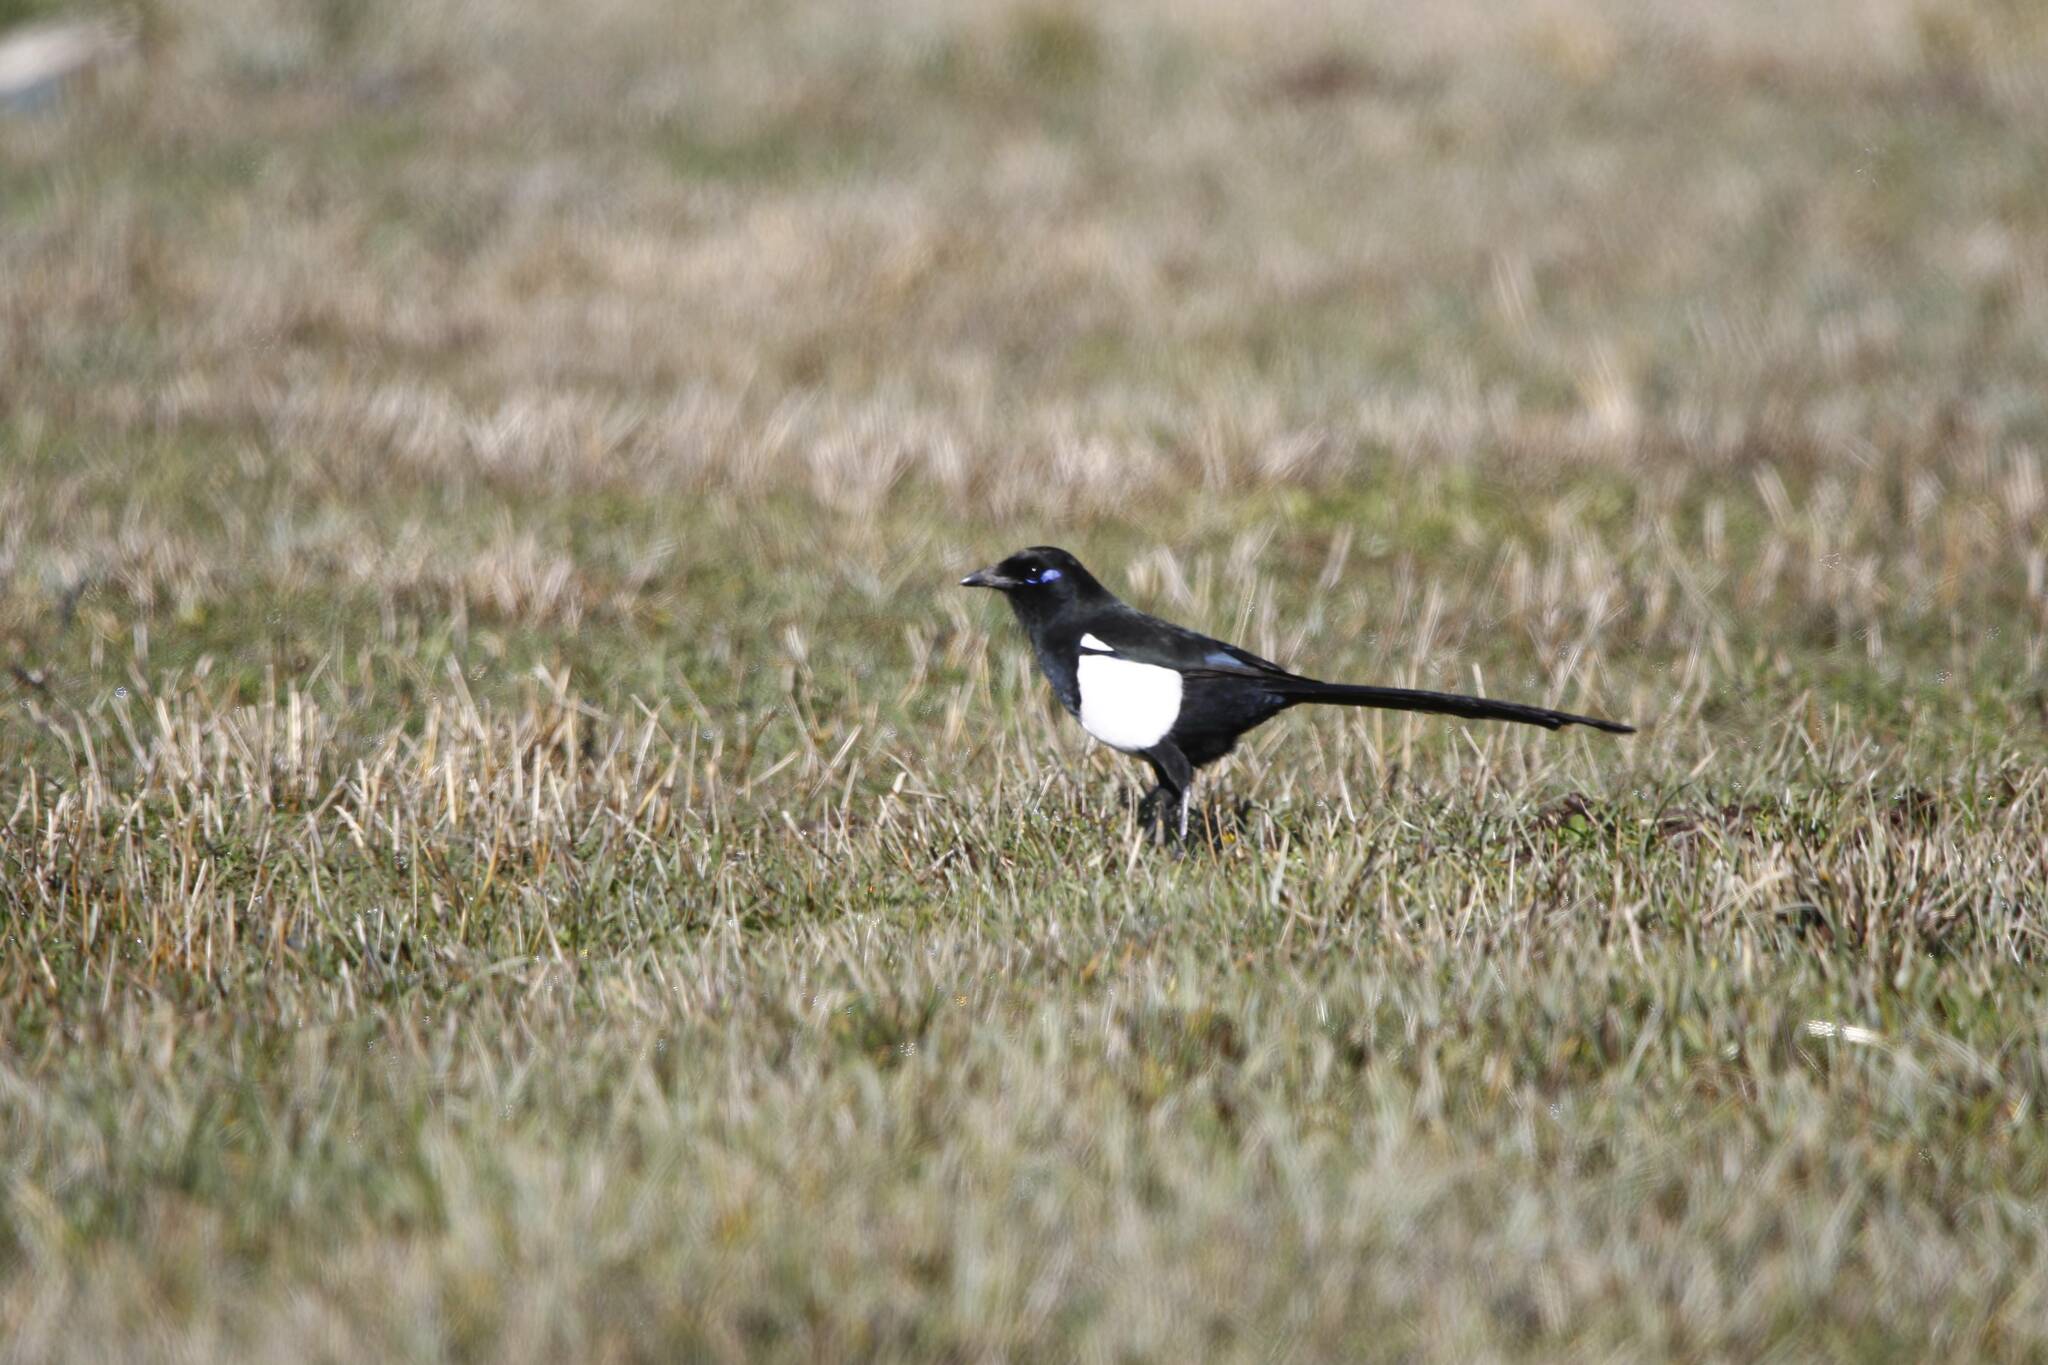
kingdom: Animalia
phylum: Chordata
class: Aves
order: Passeriformes
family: Corvidae
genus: Pica
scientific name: Pica mauritanica
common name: Maghreb magpie
